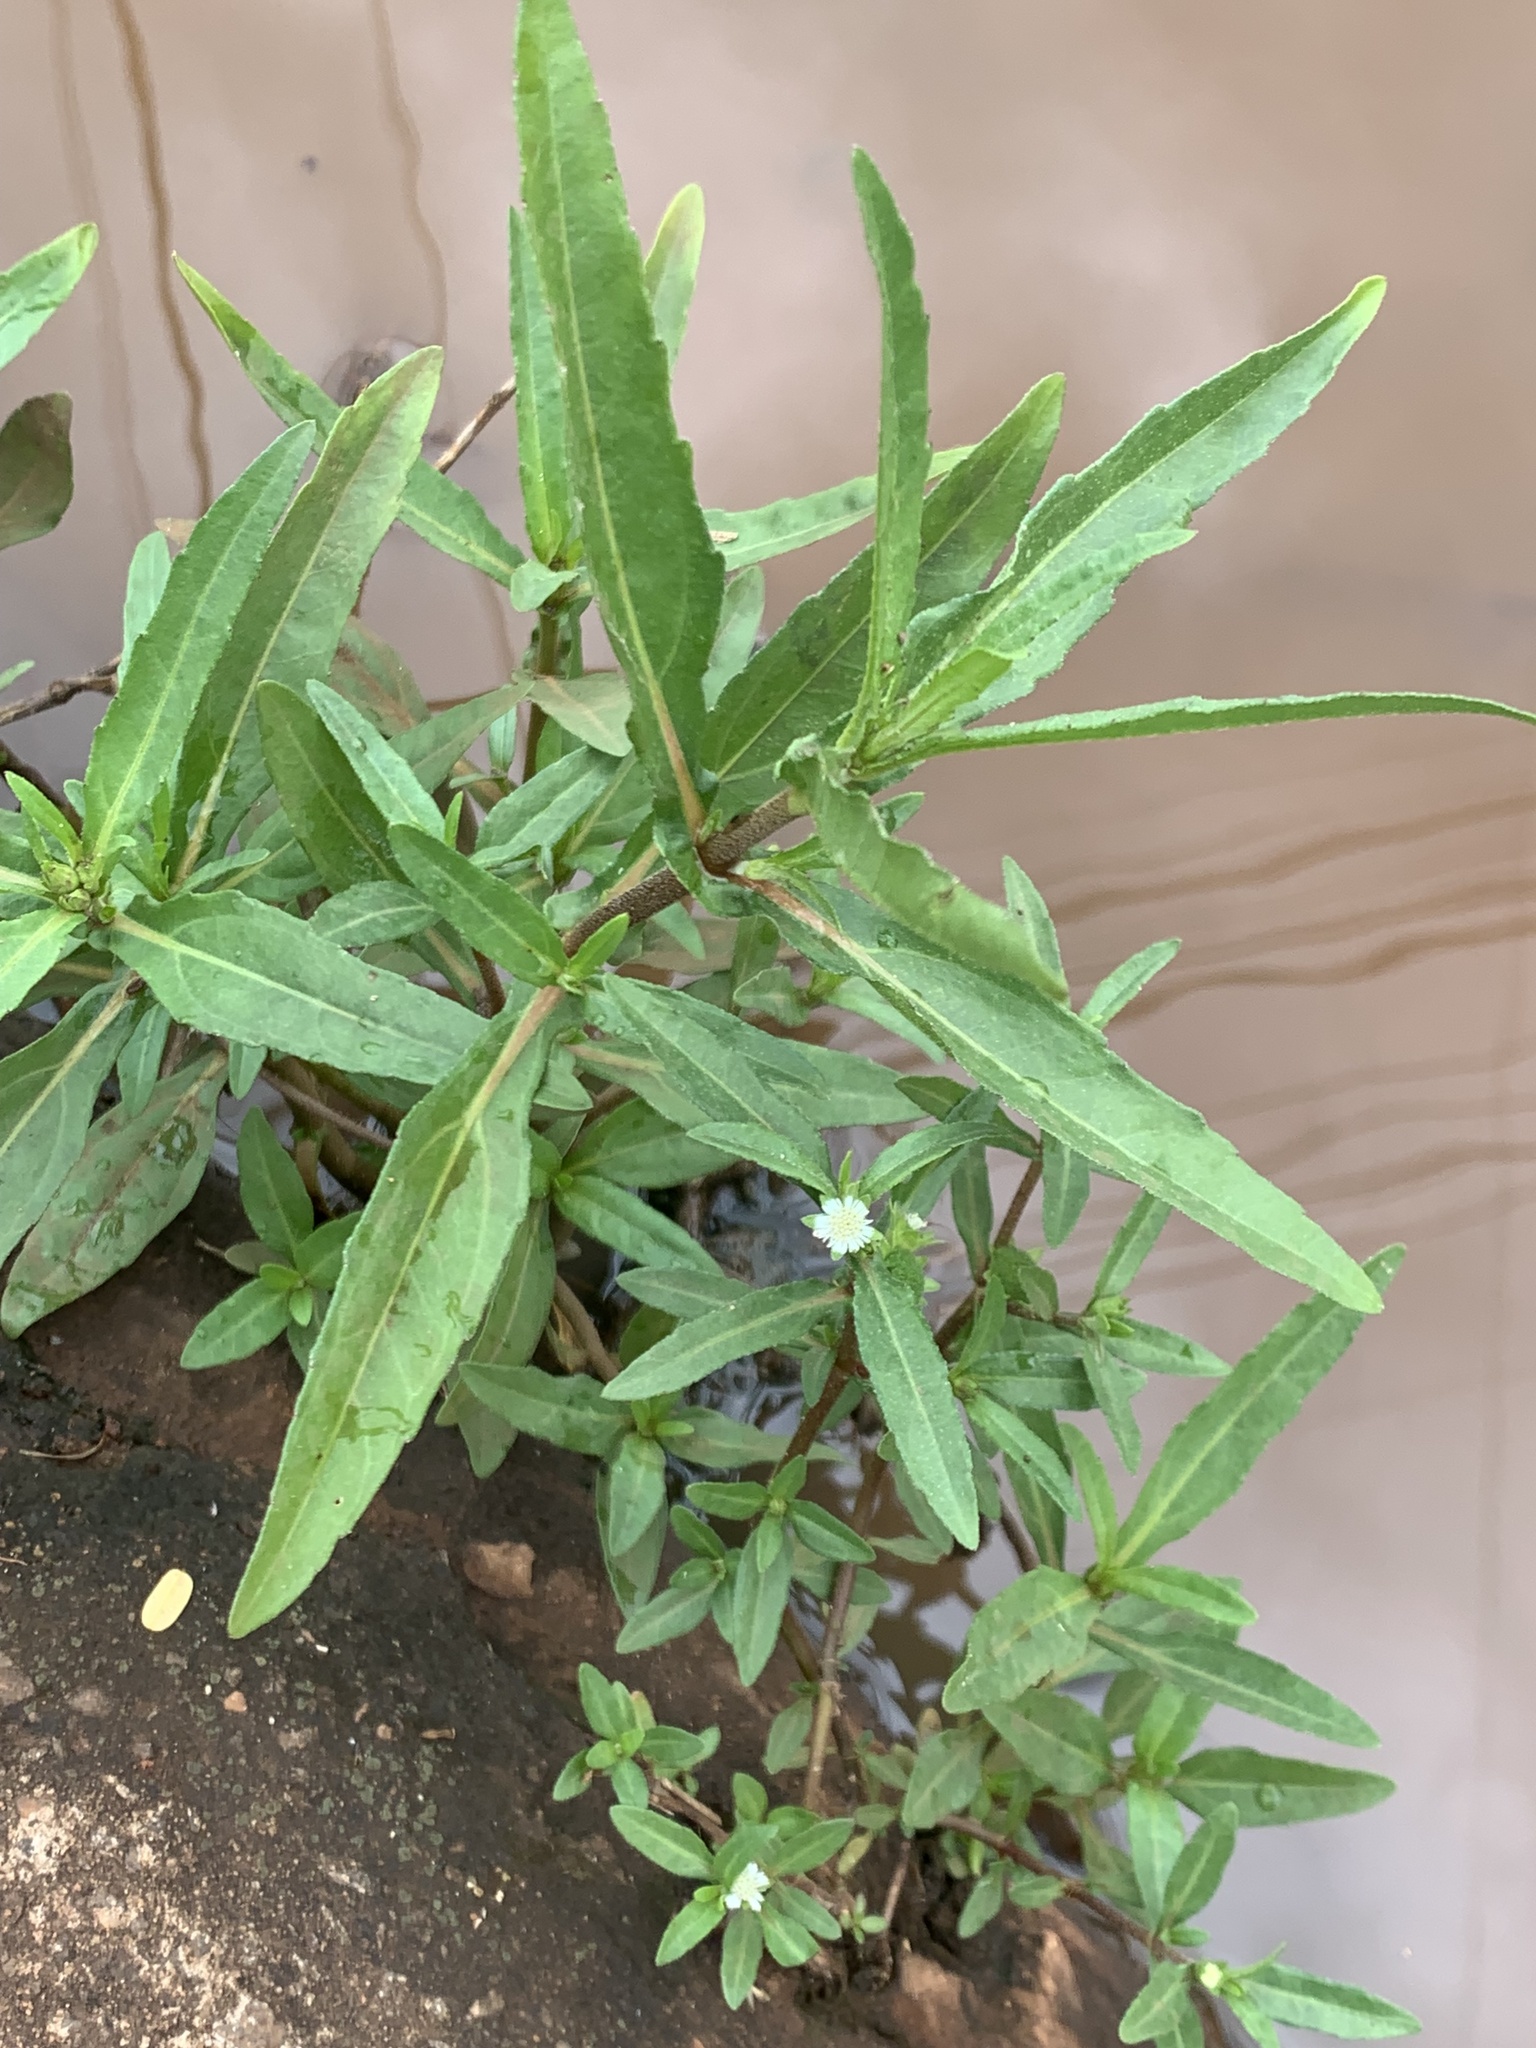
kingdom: Plantae
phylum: Tracheophyta
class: Magnoliopsida
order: Asterales
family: Asteraceae
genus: Eclipta
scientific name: Eclipta prostrata
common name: False daisy
